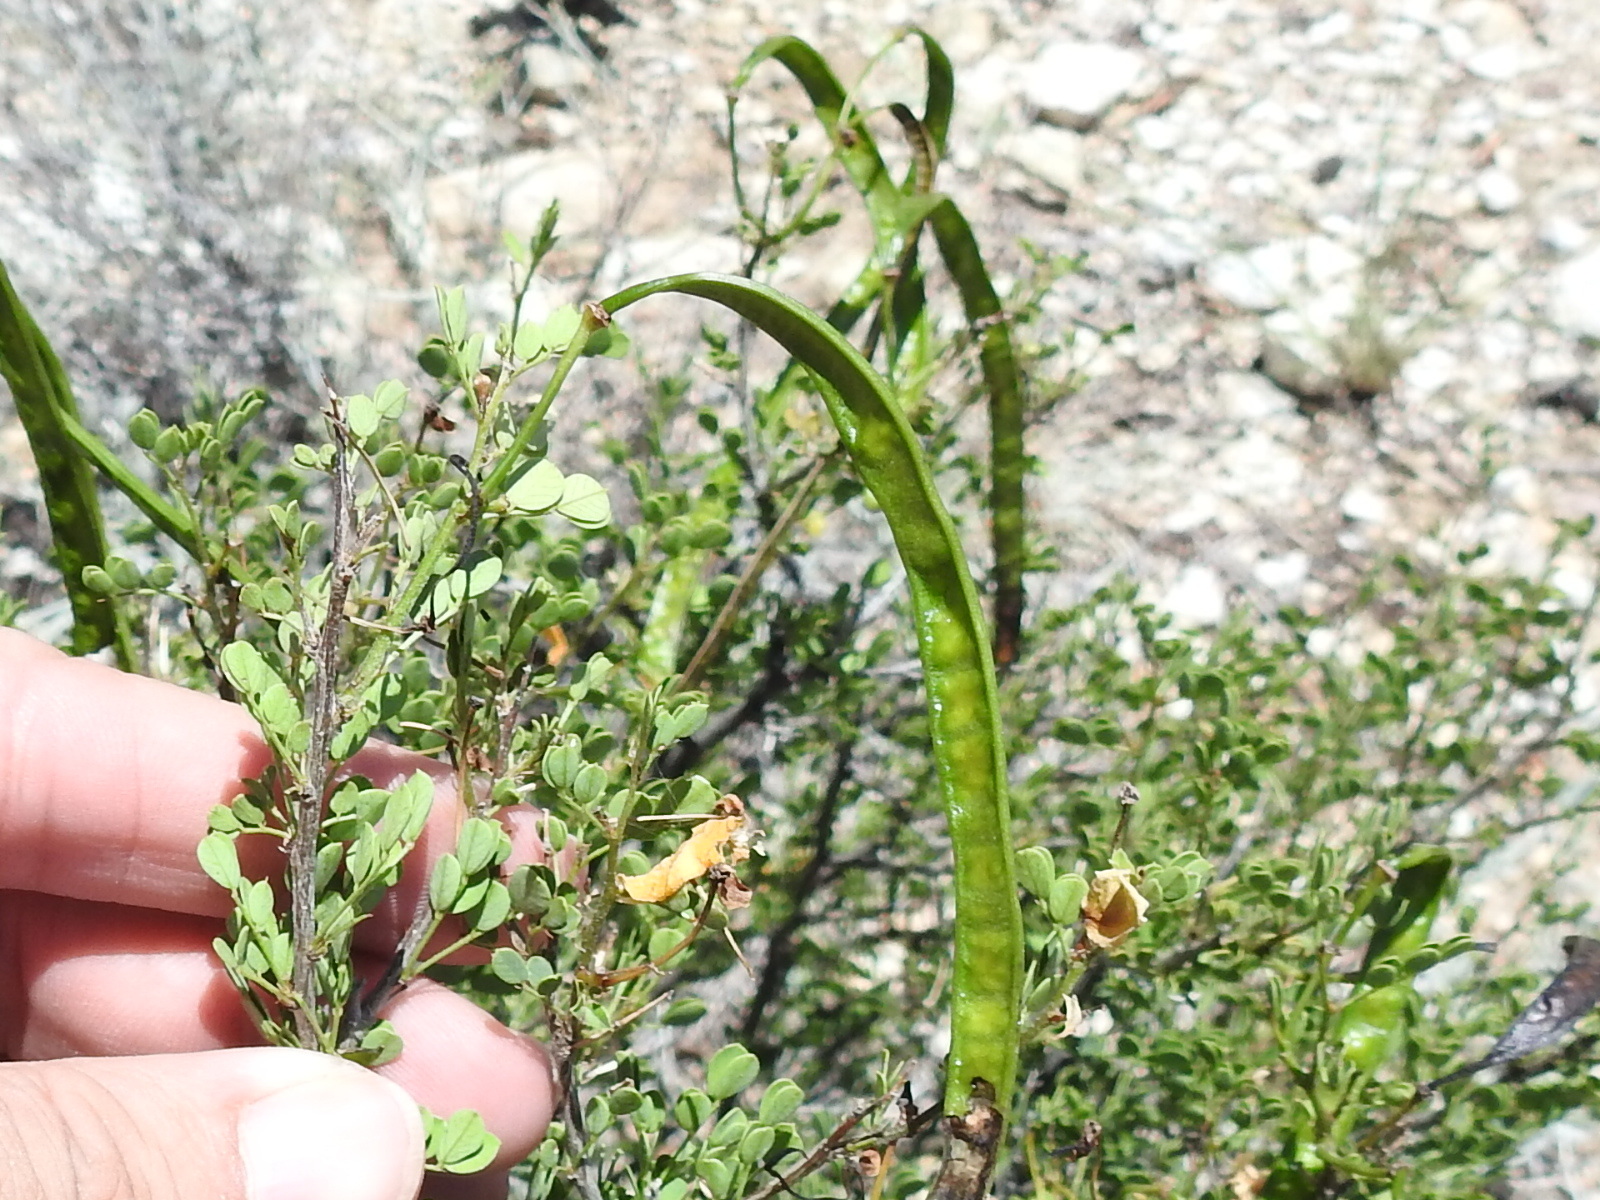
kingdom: Plantae
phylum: Tracheophyta
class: Magnoliopsida
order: Fabales
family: Fabaceae
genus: Senna
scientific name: Senna wislizeni
